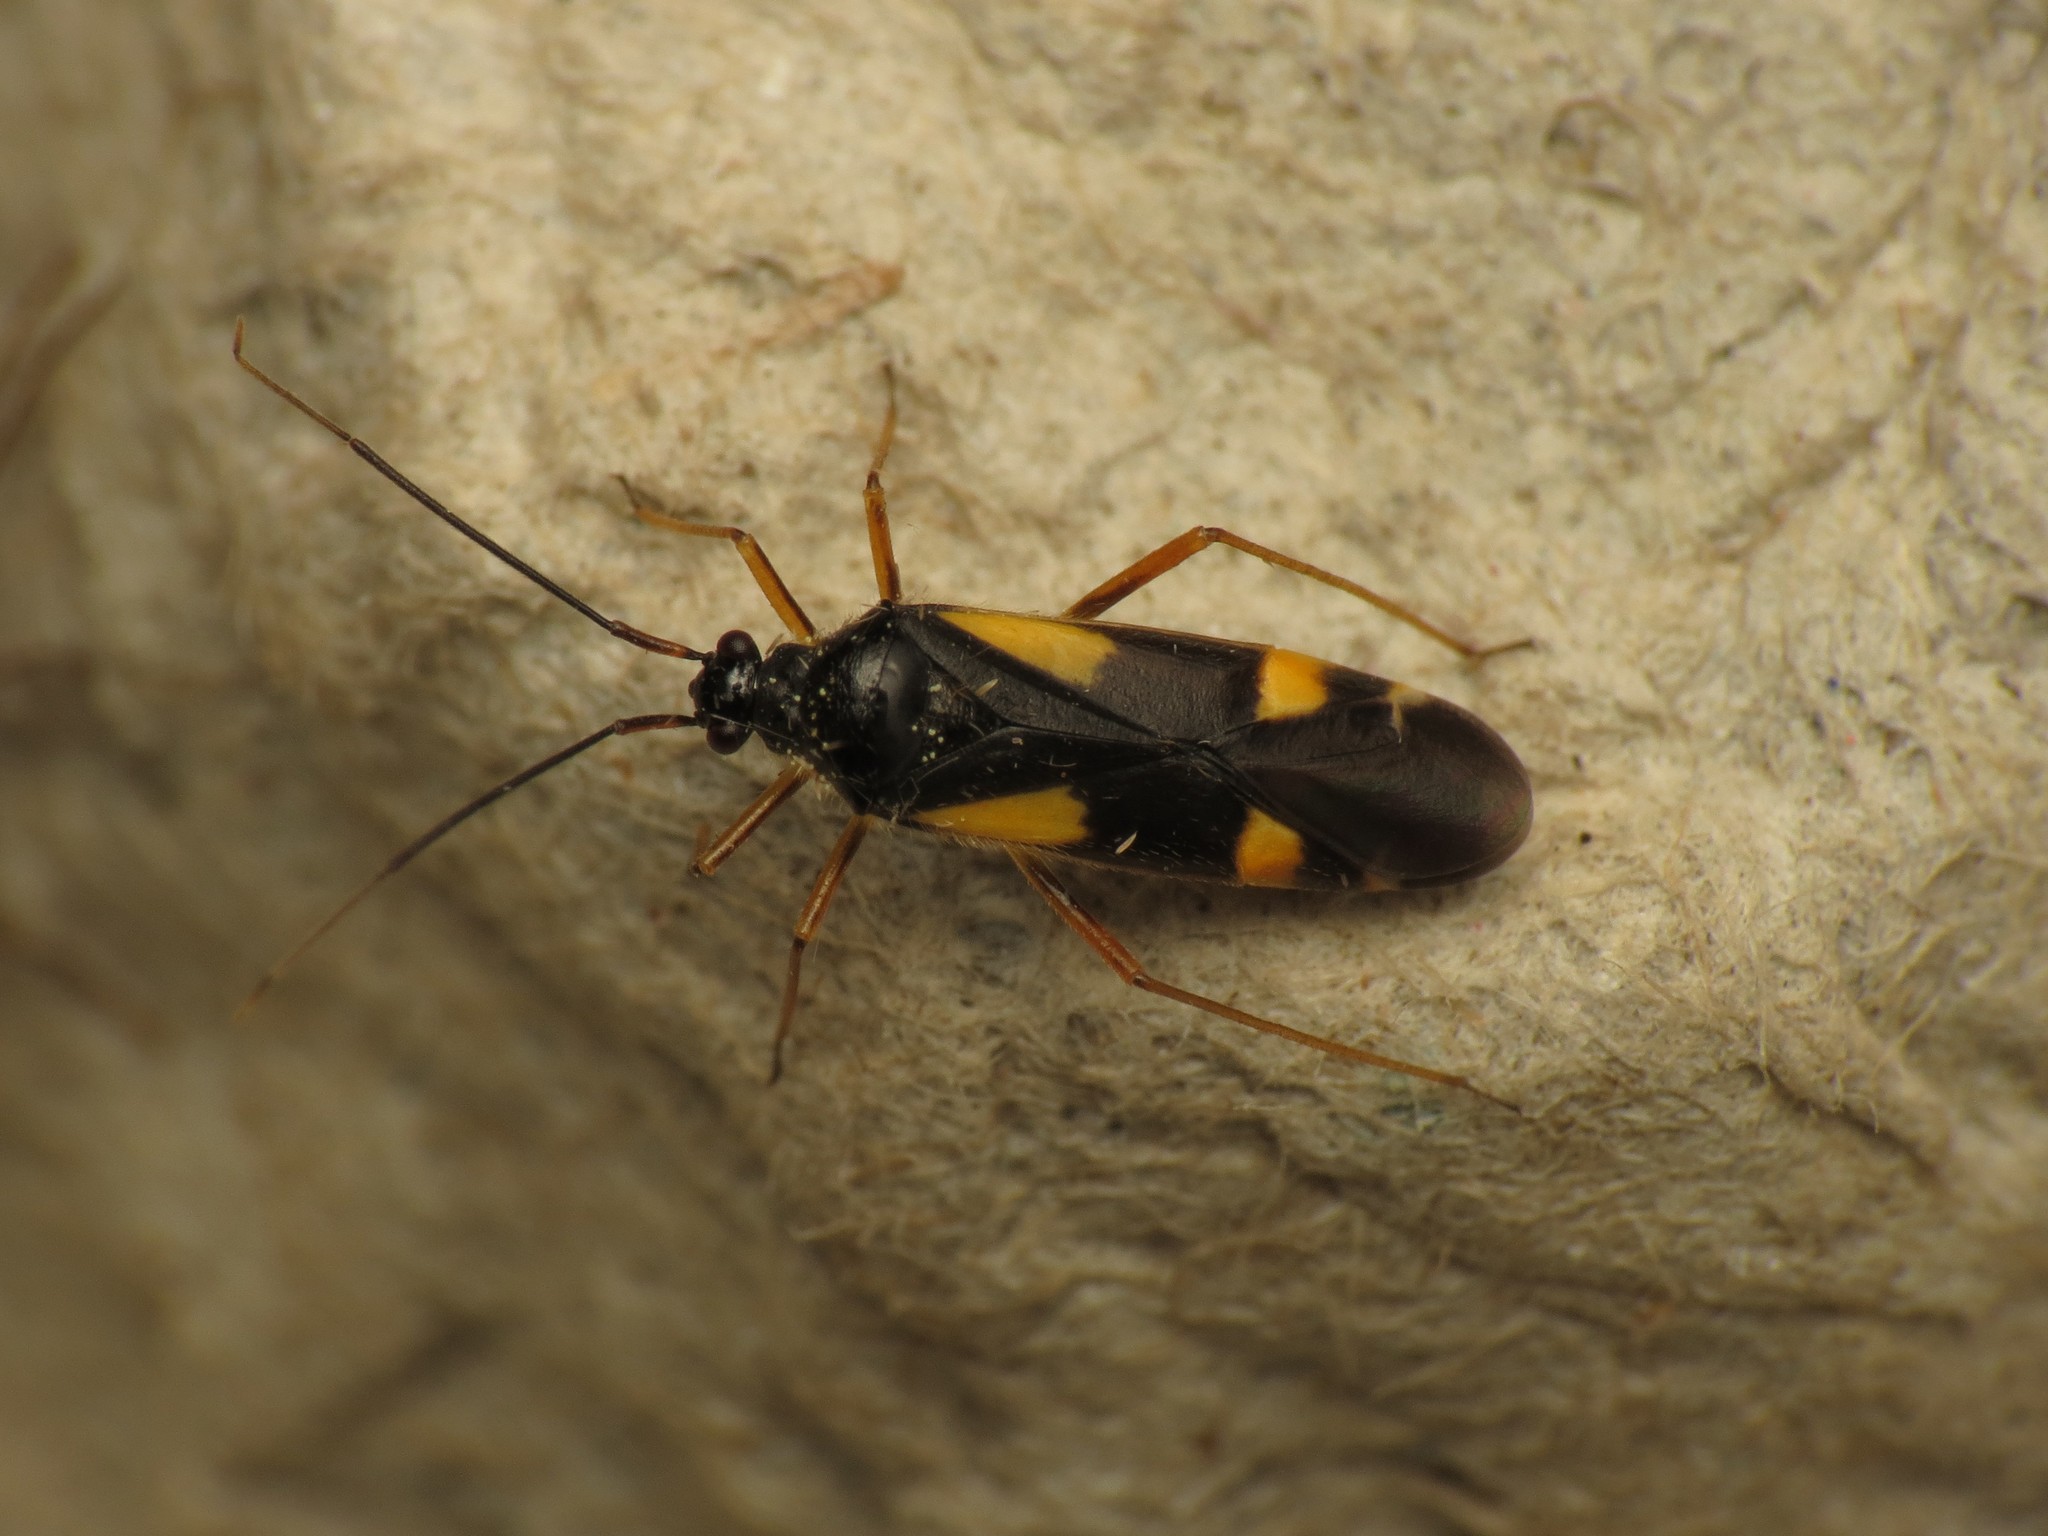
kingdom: Animalia
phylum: Arthropoda
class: Insecta
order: Hemiptera
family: Miridae
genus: Dryophilocoris
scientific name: Dryophilocoris flavoquadrimaculatus
